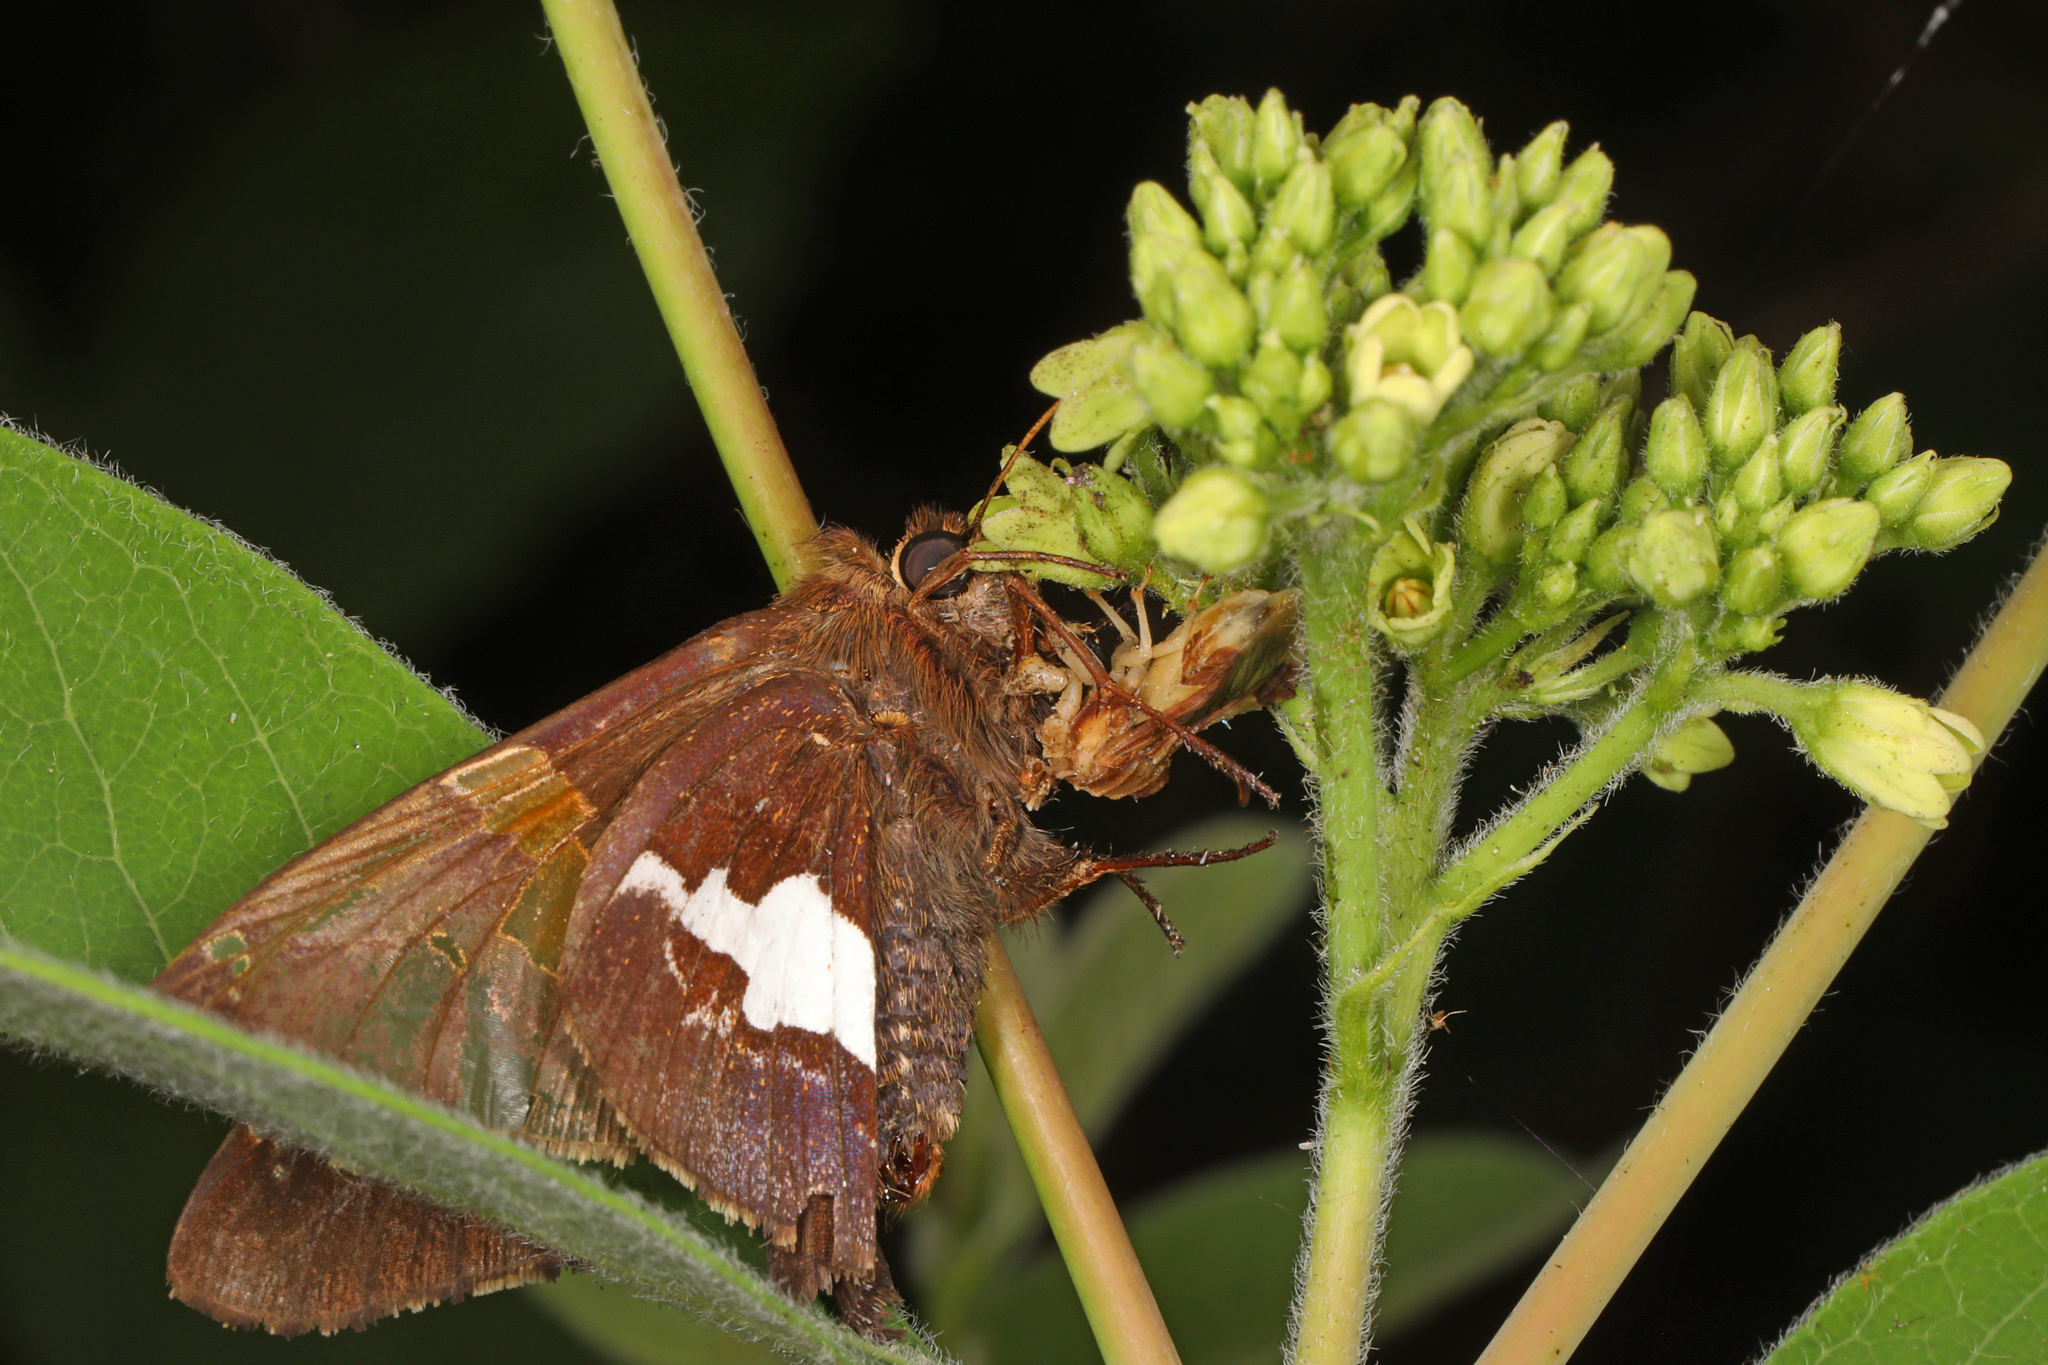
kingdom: Animalia
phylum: Arthropoda
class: Insecta
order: Lepidoptera
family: Hesperiidae
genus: Epargyreus
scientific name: Epargyreus clarus
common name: Silver-spotted skipper
